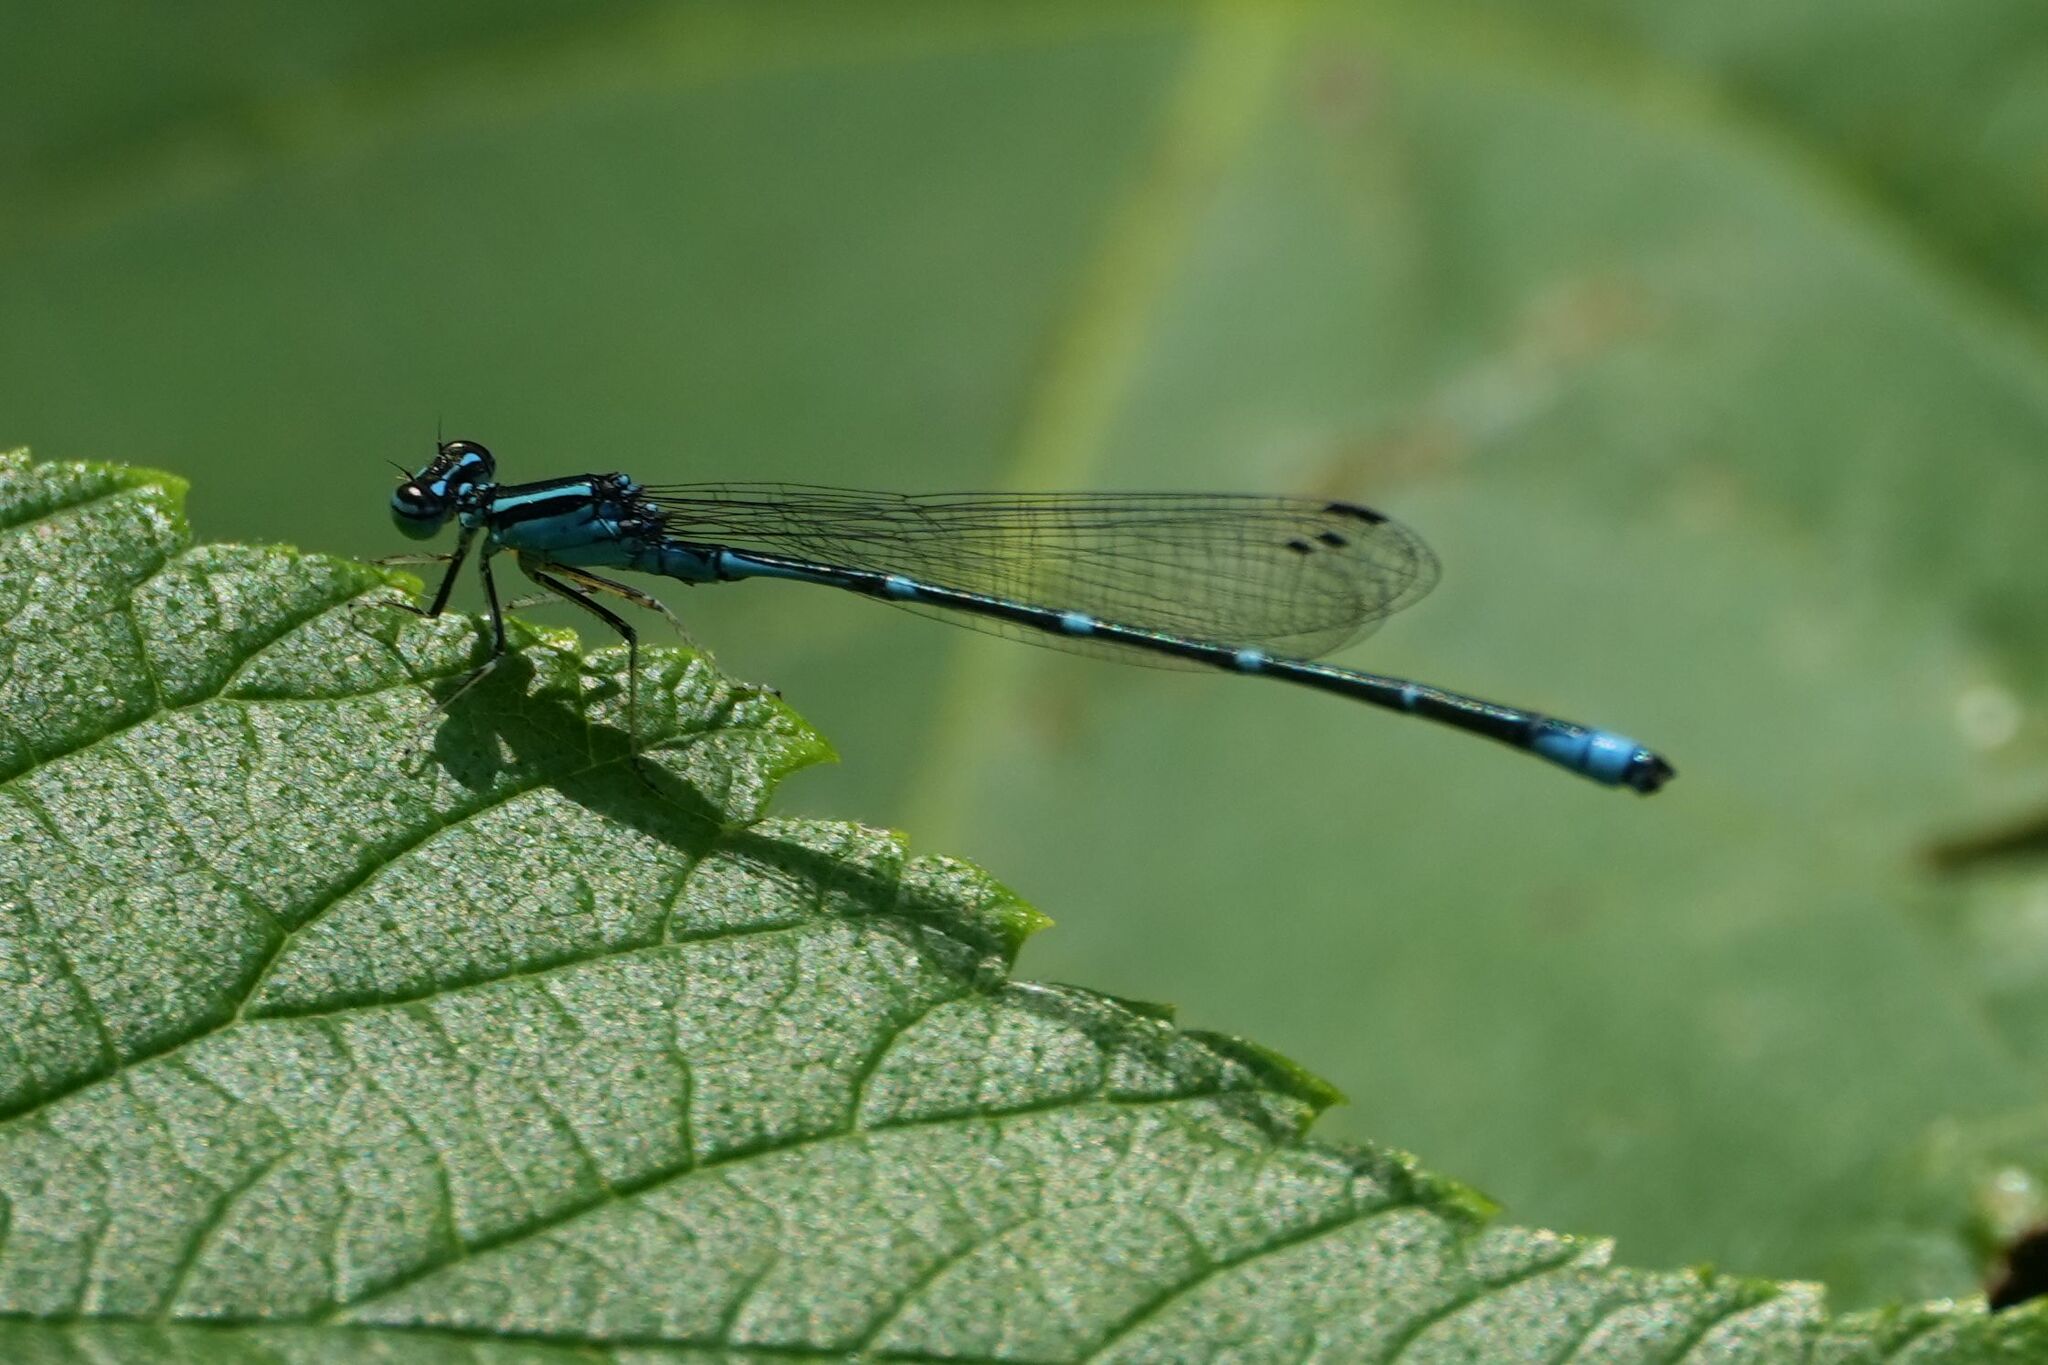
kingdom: Animalia
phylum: Arthropoda
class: Insecta
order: Odonata
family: Coenagrionidae
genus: Enallagma
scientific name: Enallagma exsulans
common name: Stream bluet
